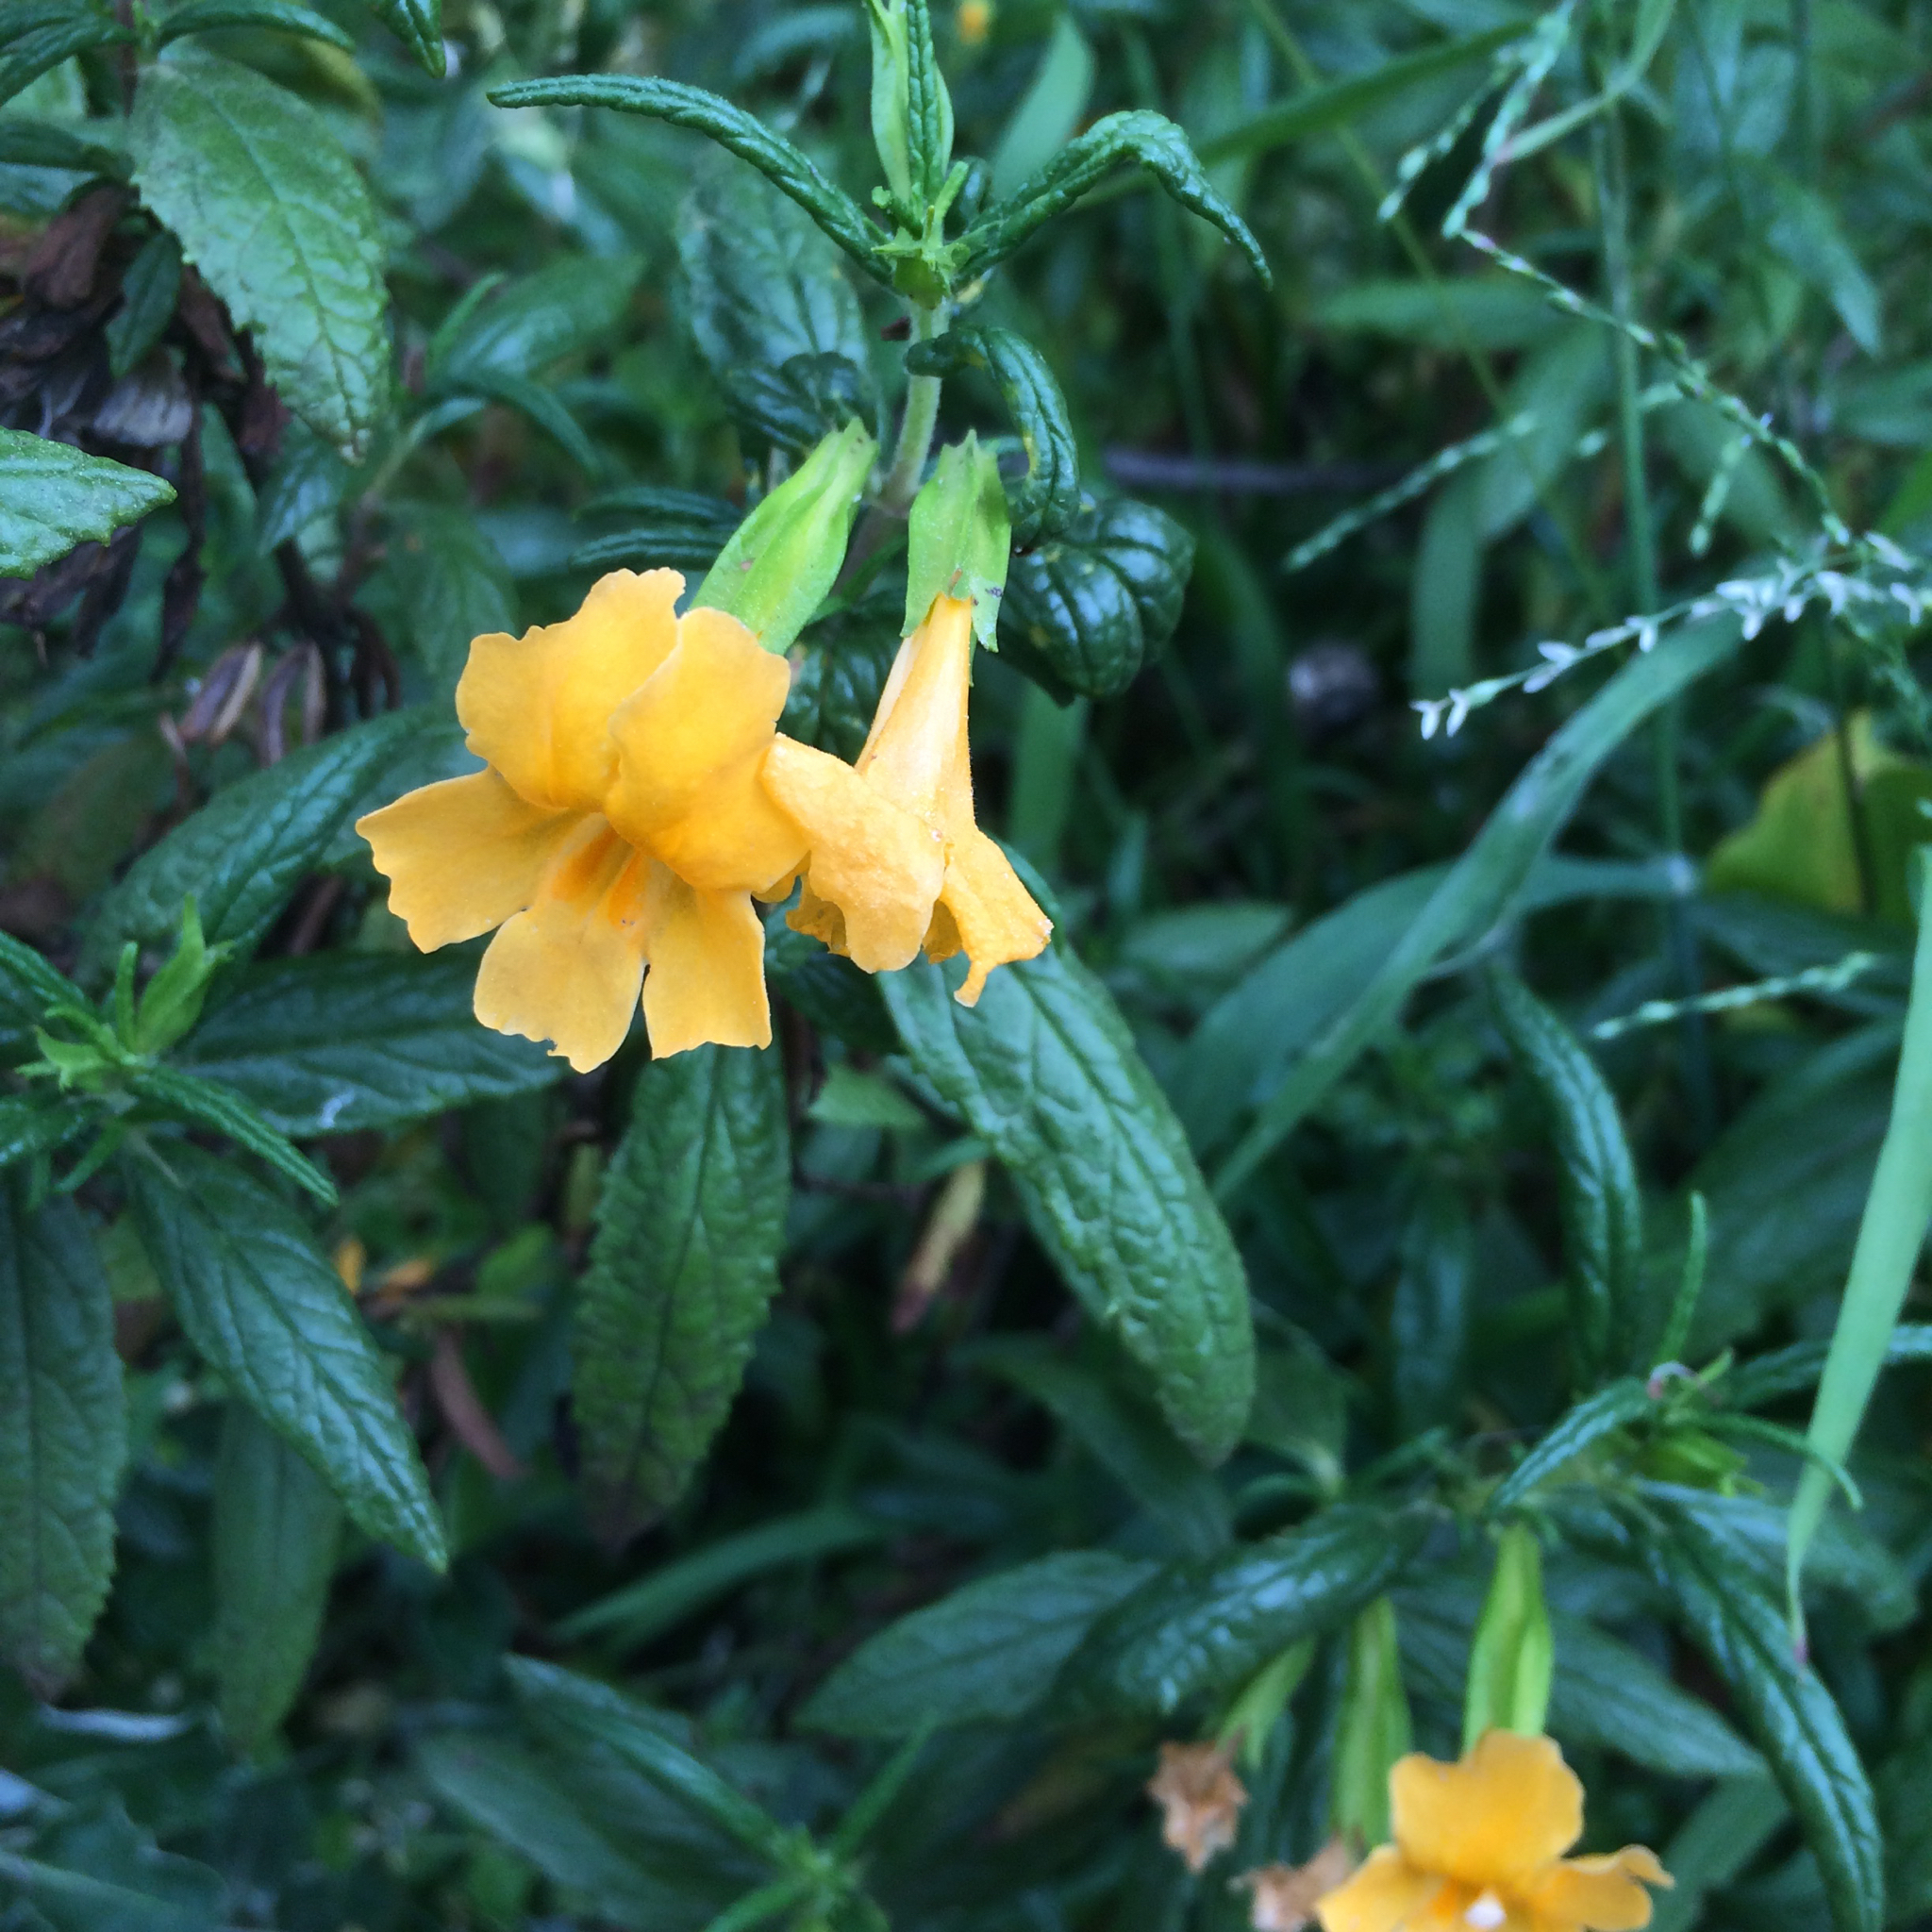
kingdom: Plantae
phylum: Tracheophyta
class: Magnoliopsida
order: Lamiales
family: Phrymaceae
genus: Diplacus
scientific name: Diplacus aurantiacus
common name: Bush monkey-flower
